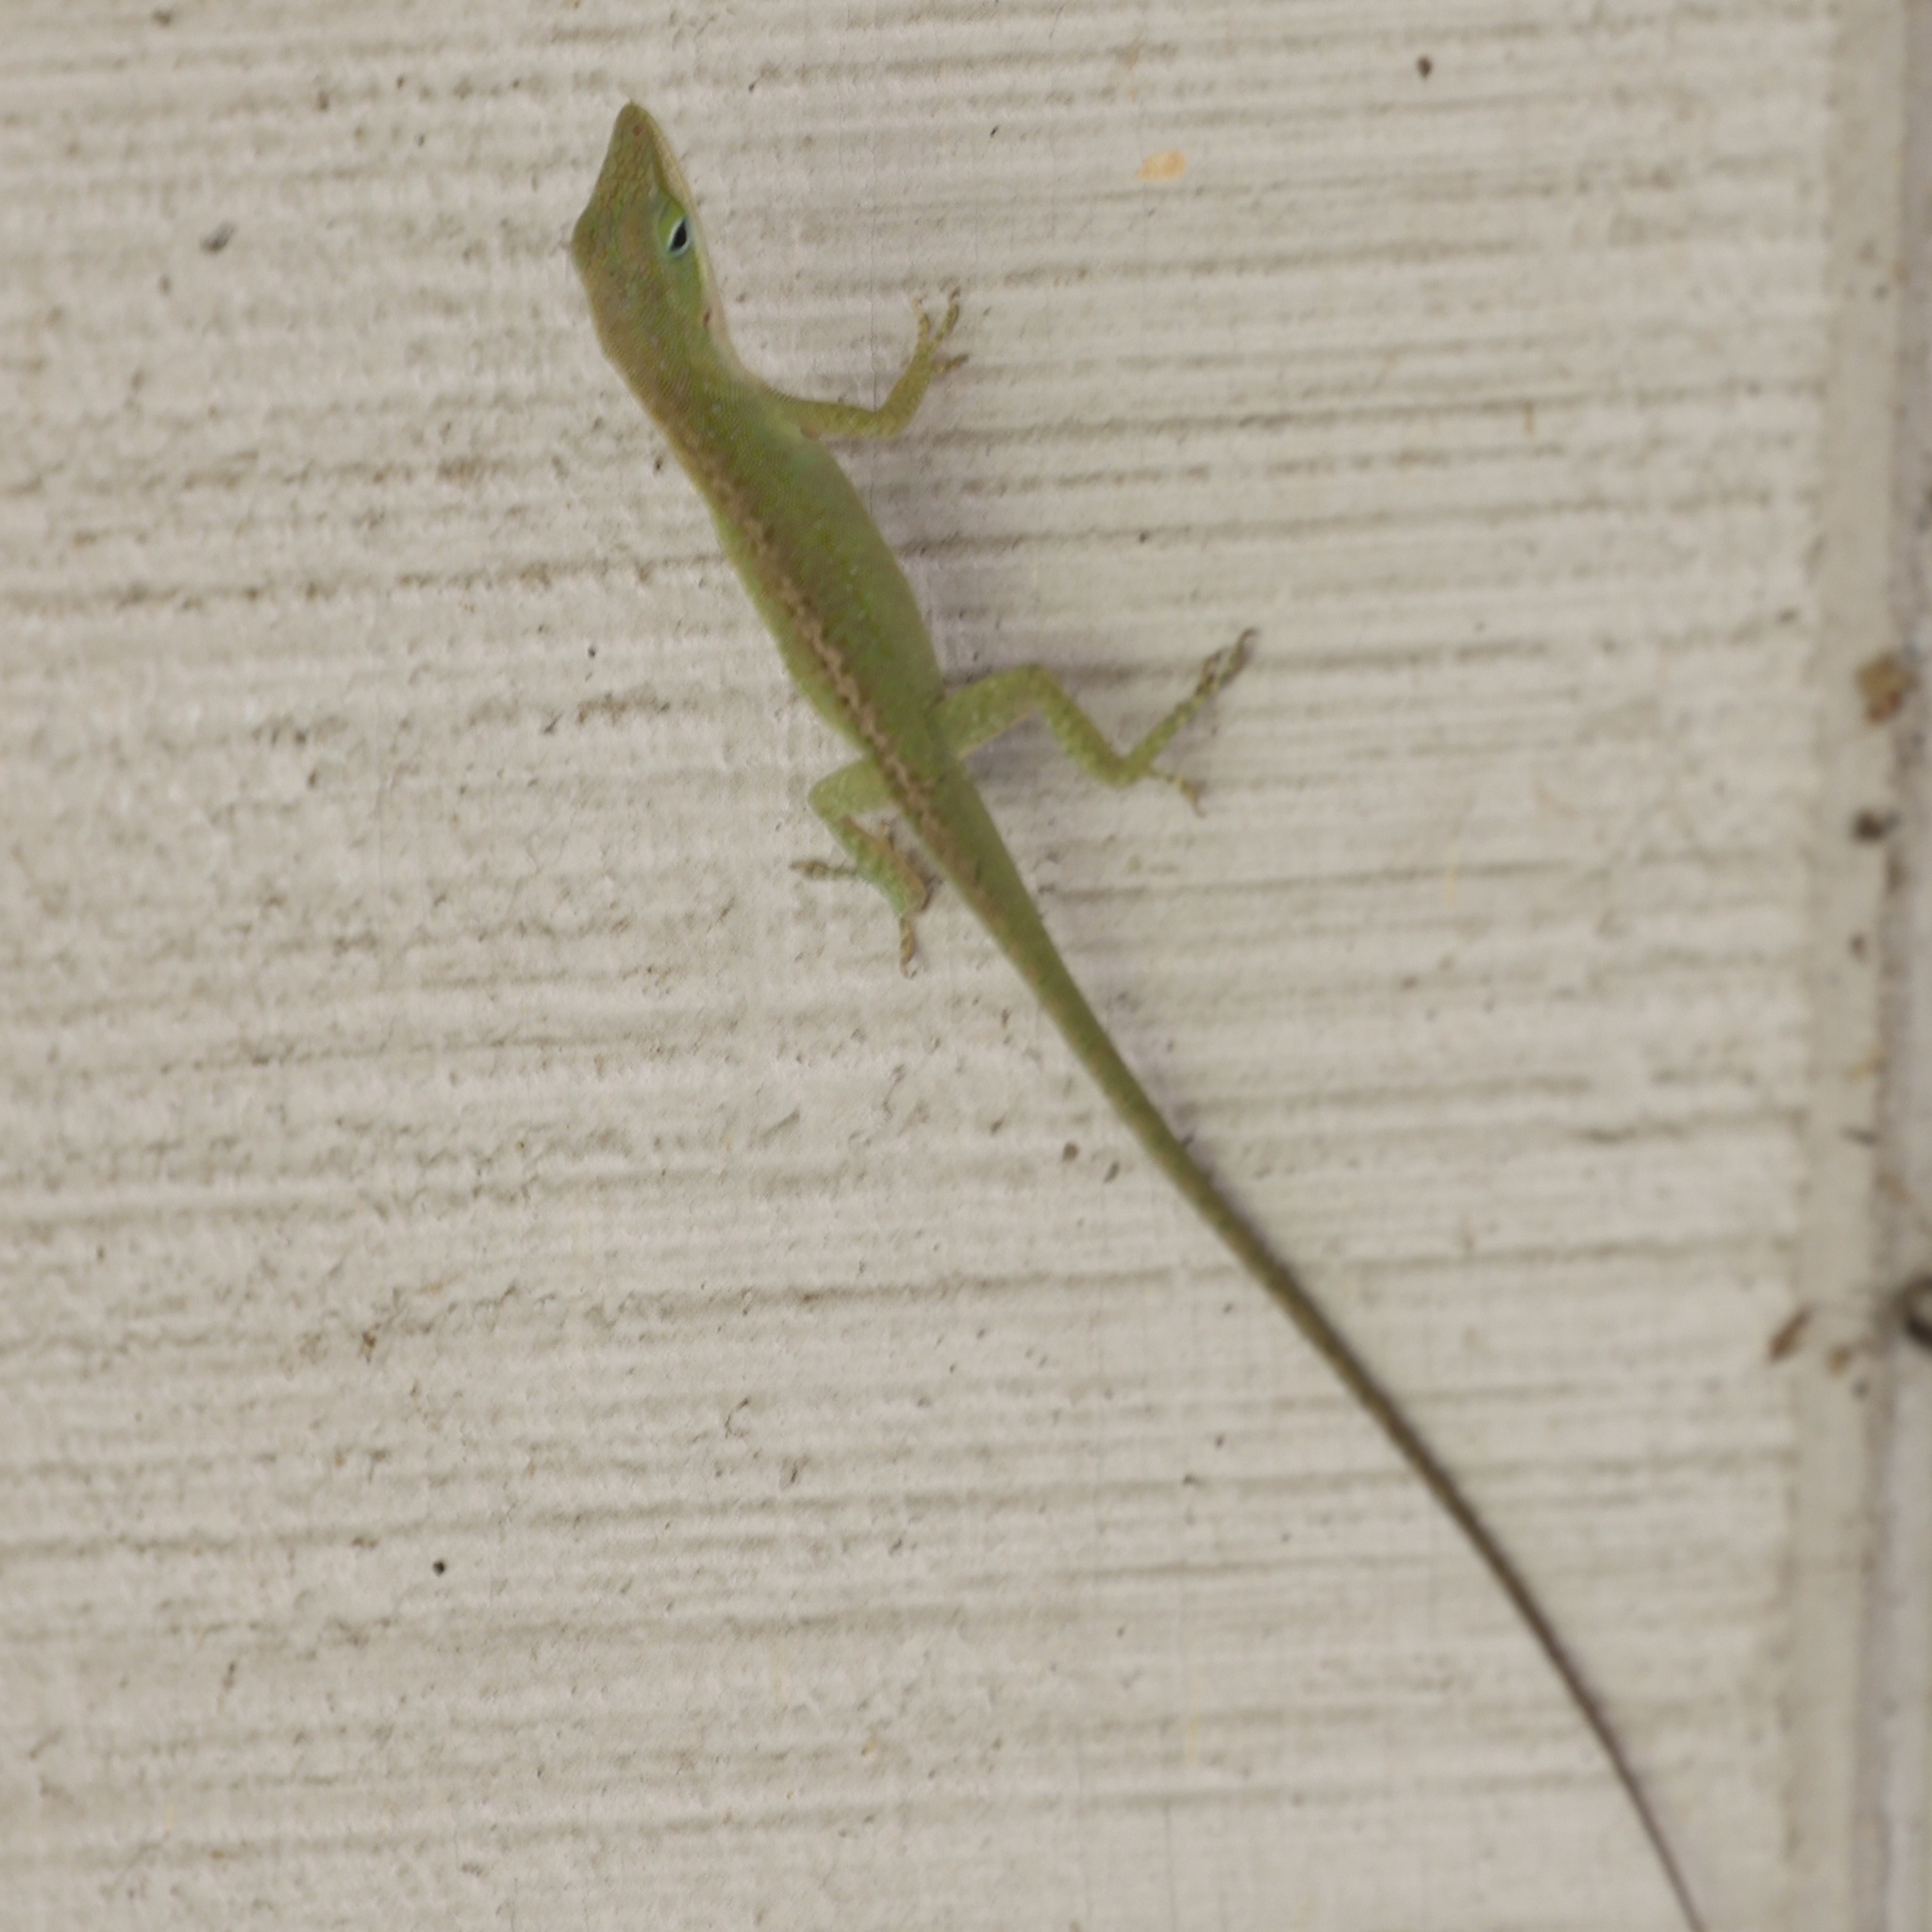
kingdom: Animalia
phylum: Chordata
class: Squamata
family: Dactyloidae
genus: Anolis
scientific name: Anolis carolinensis
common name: Green anole
